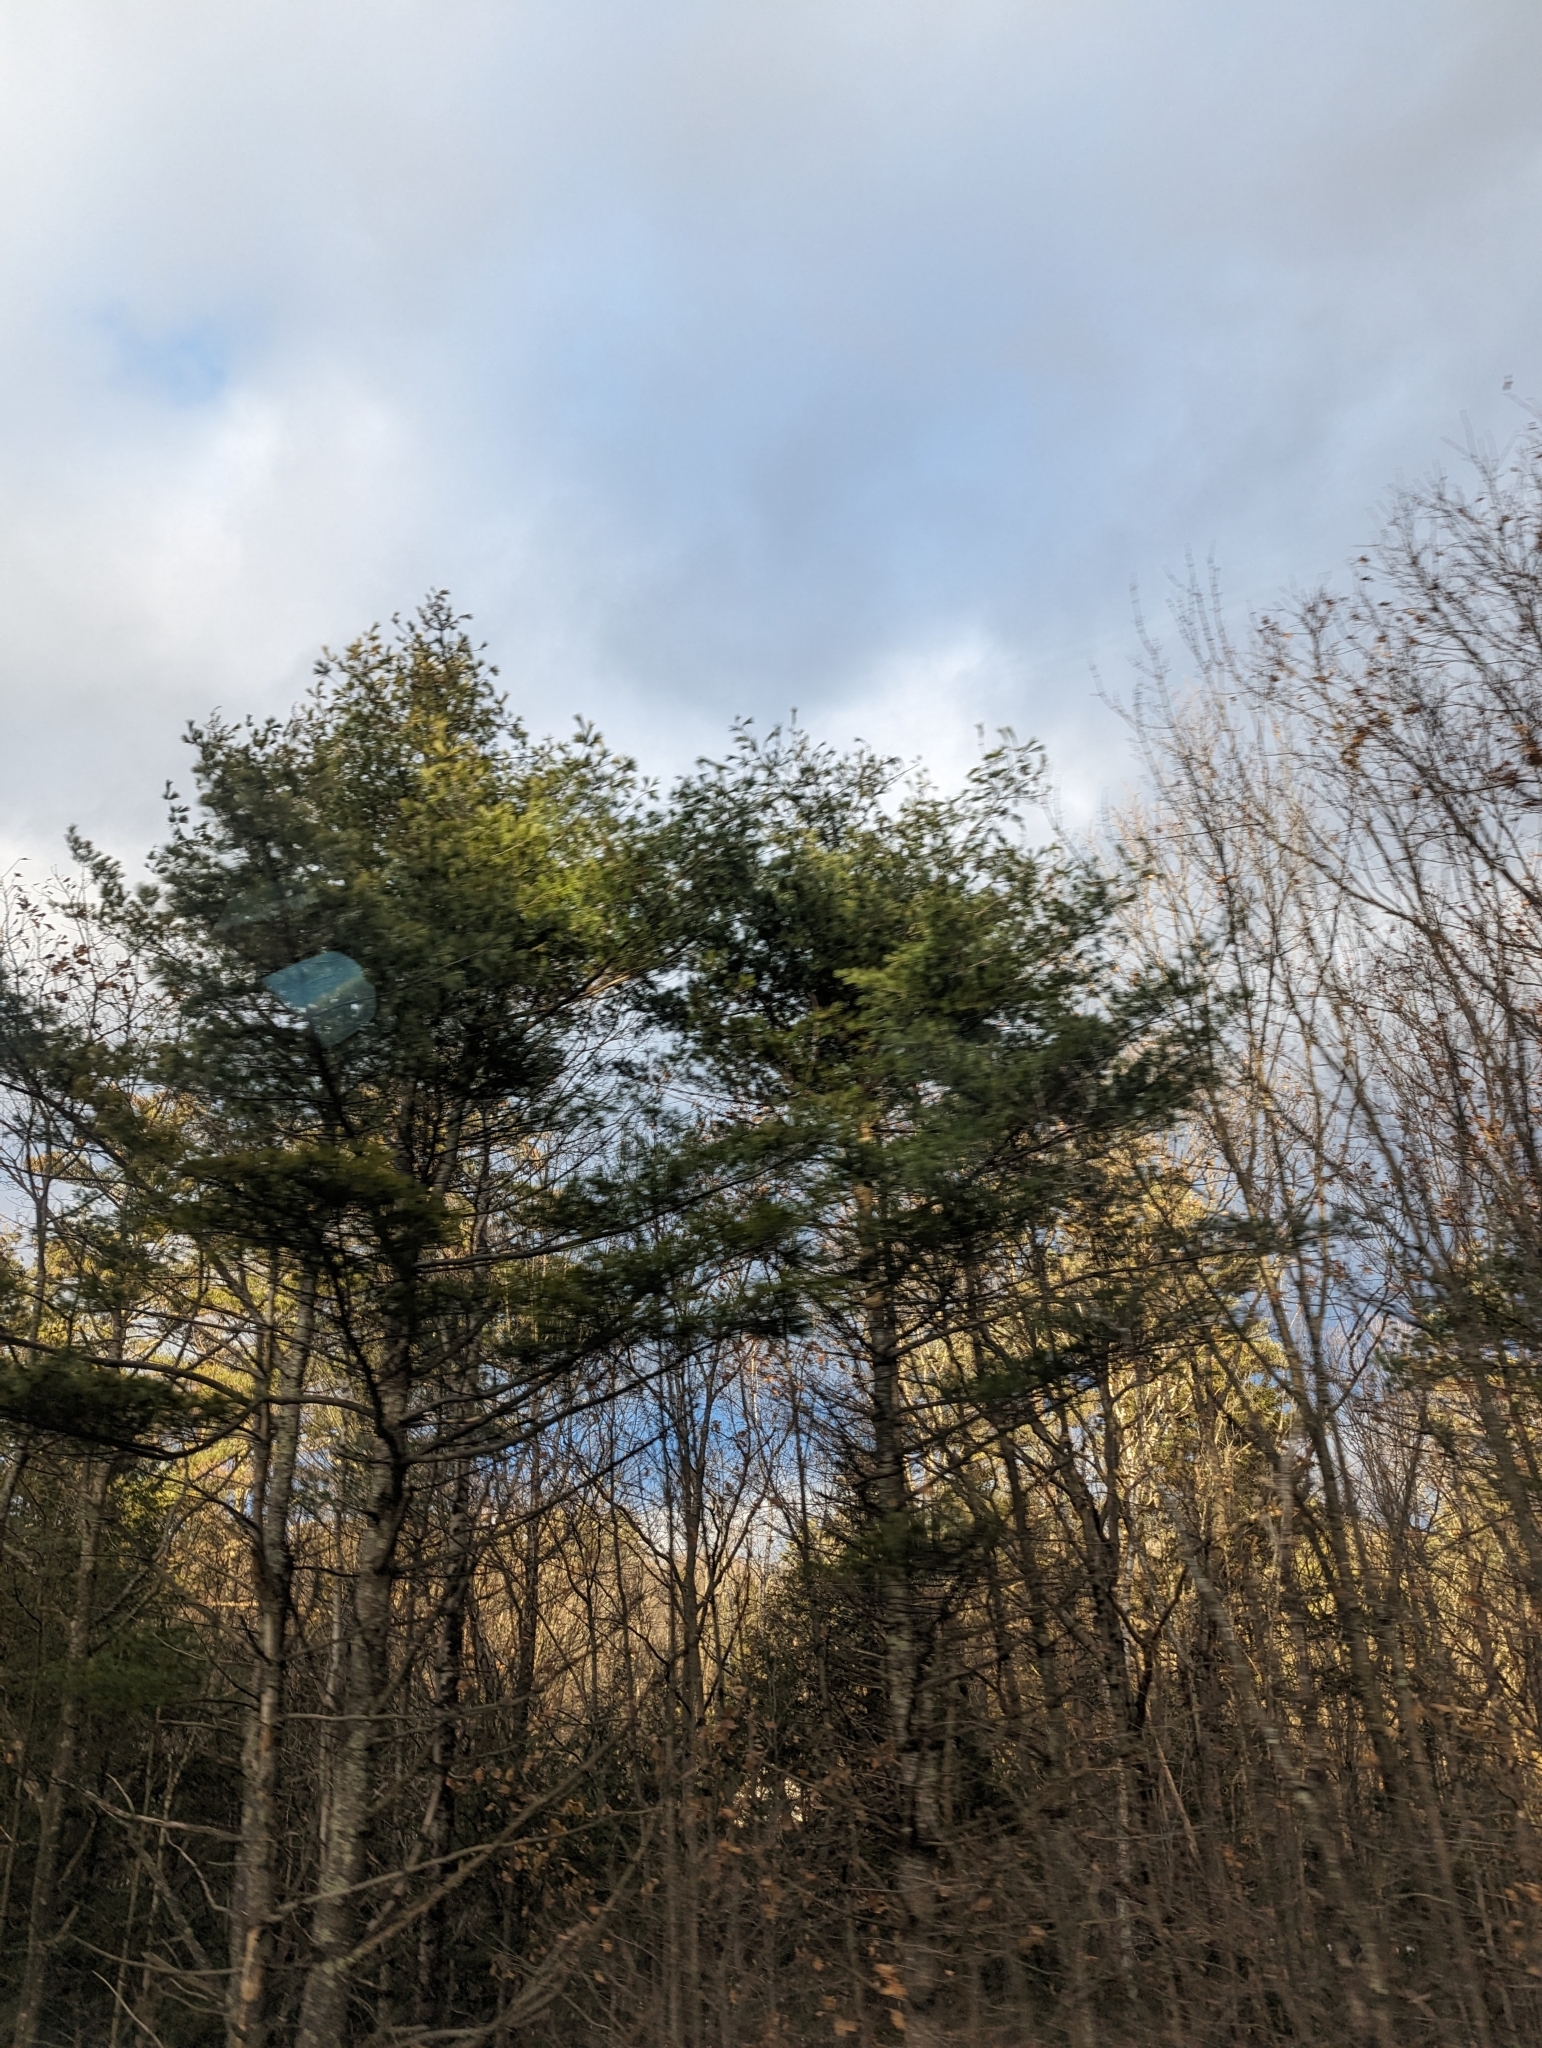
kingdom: Plantae
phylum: Tracheophyta
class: Pinopsida
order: Pinales
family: Pinaceae
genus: Pinus
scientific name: Pinus strobus
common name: Weymouth pine
